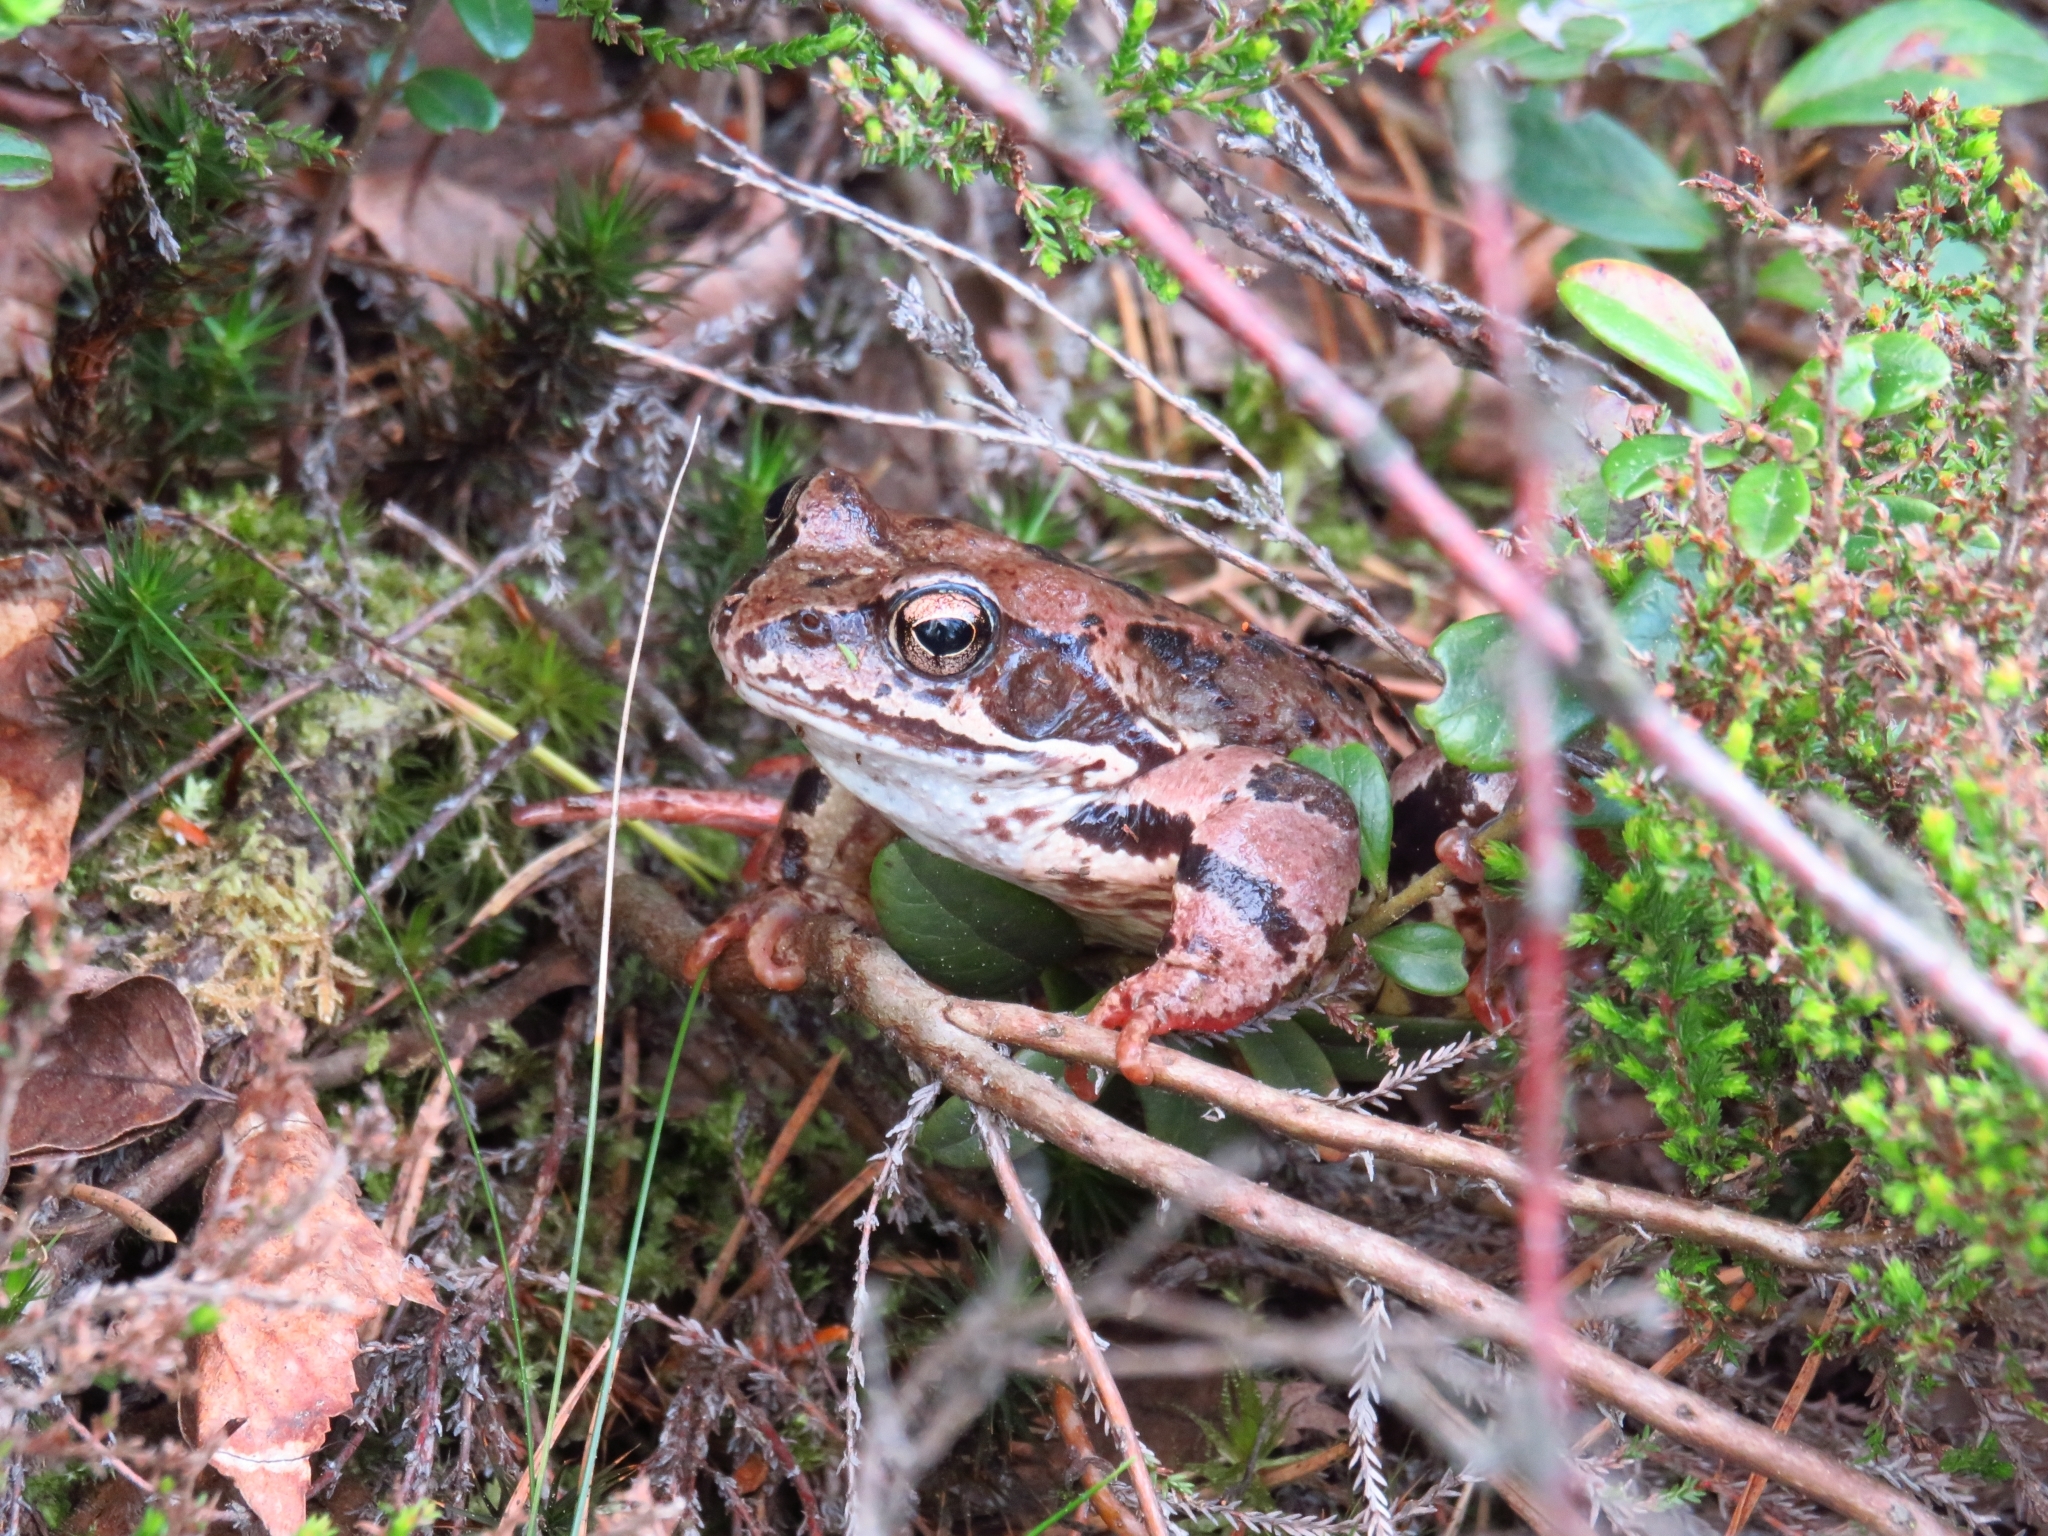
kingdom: Animalia
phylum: Chordata
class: Amphibia
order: Anura
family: Ranidae
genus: Rana
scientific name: Rana temporaria
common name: Common frog
